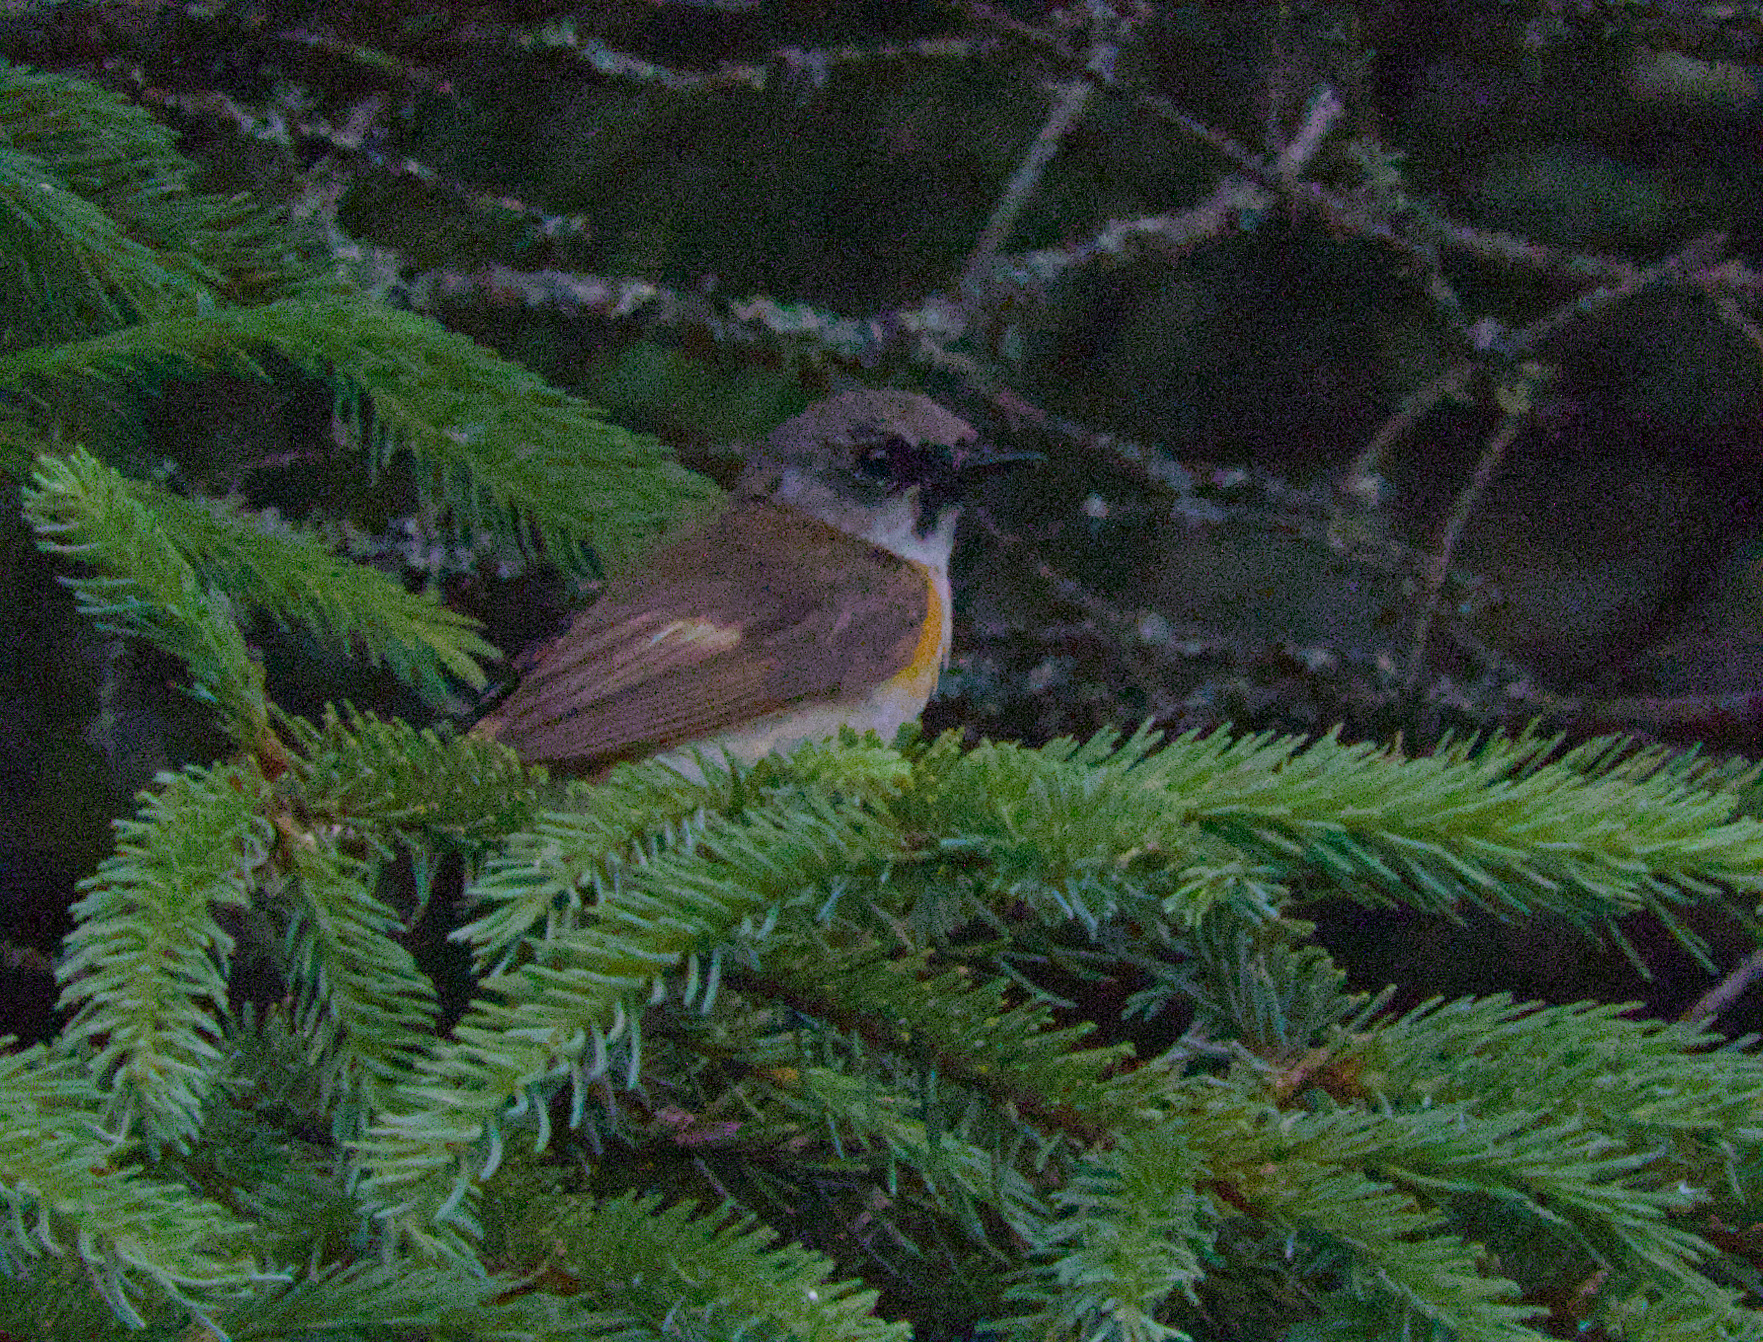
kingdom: Animalia
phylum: Chordata
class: Aves
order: Passeriformes
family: Parulidae
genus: Setophaga
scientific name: Setophaga ruticilla
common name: American redstart
